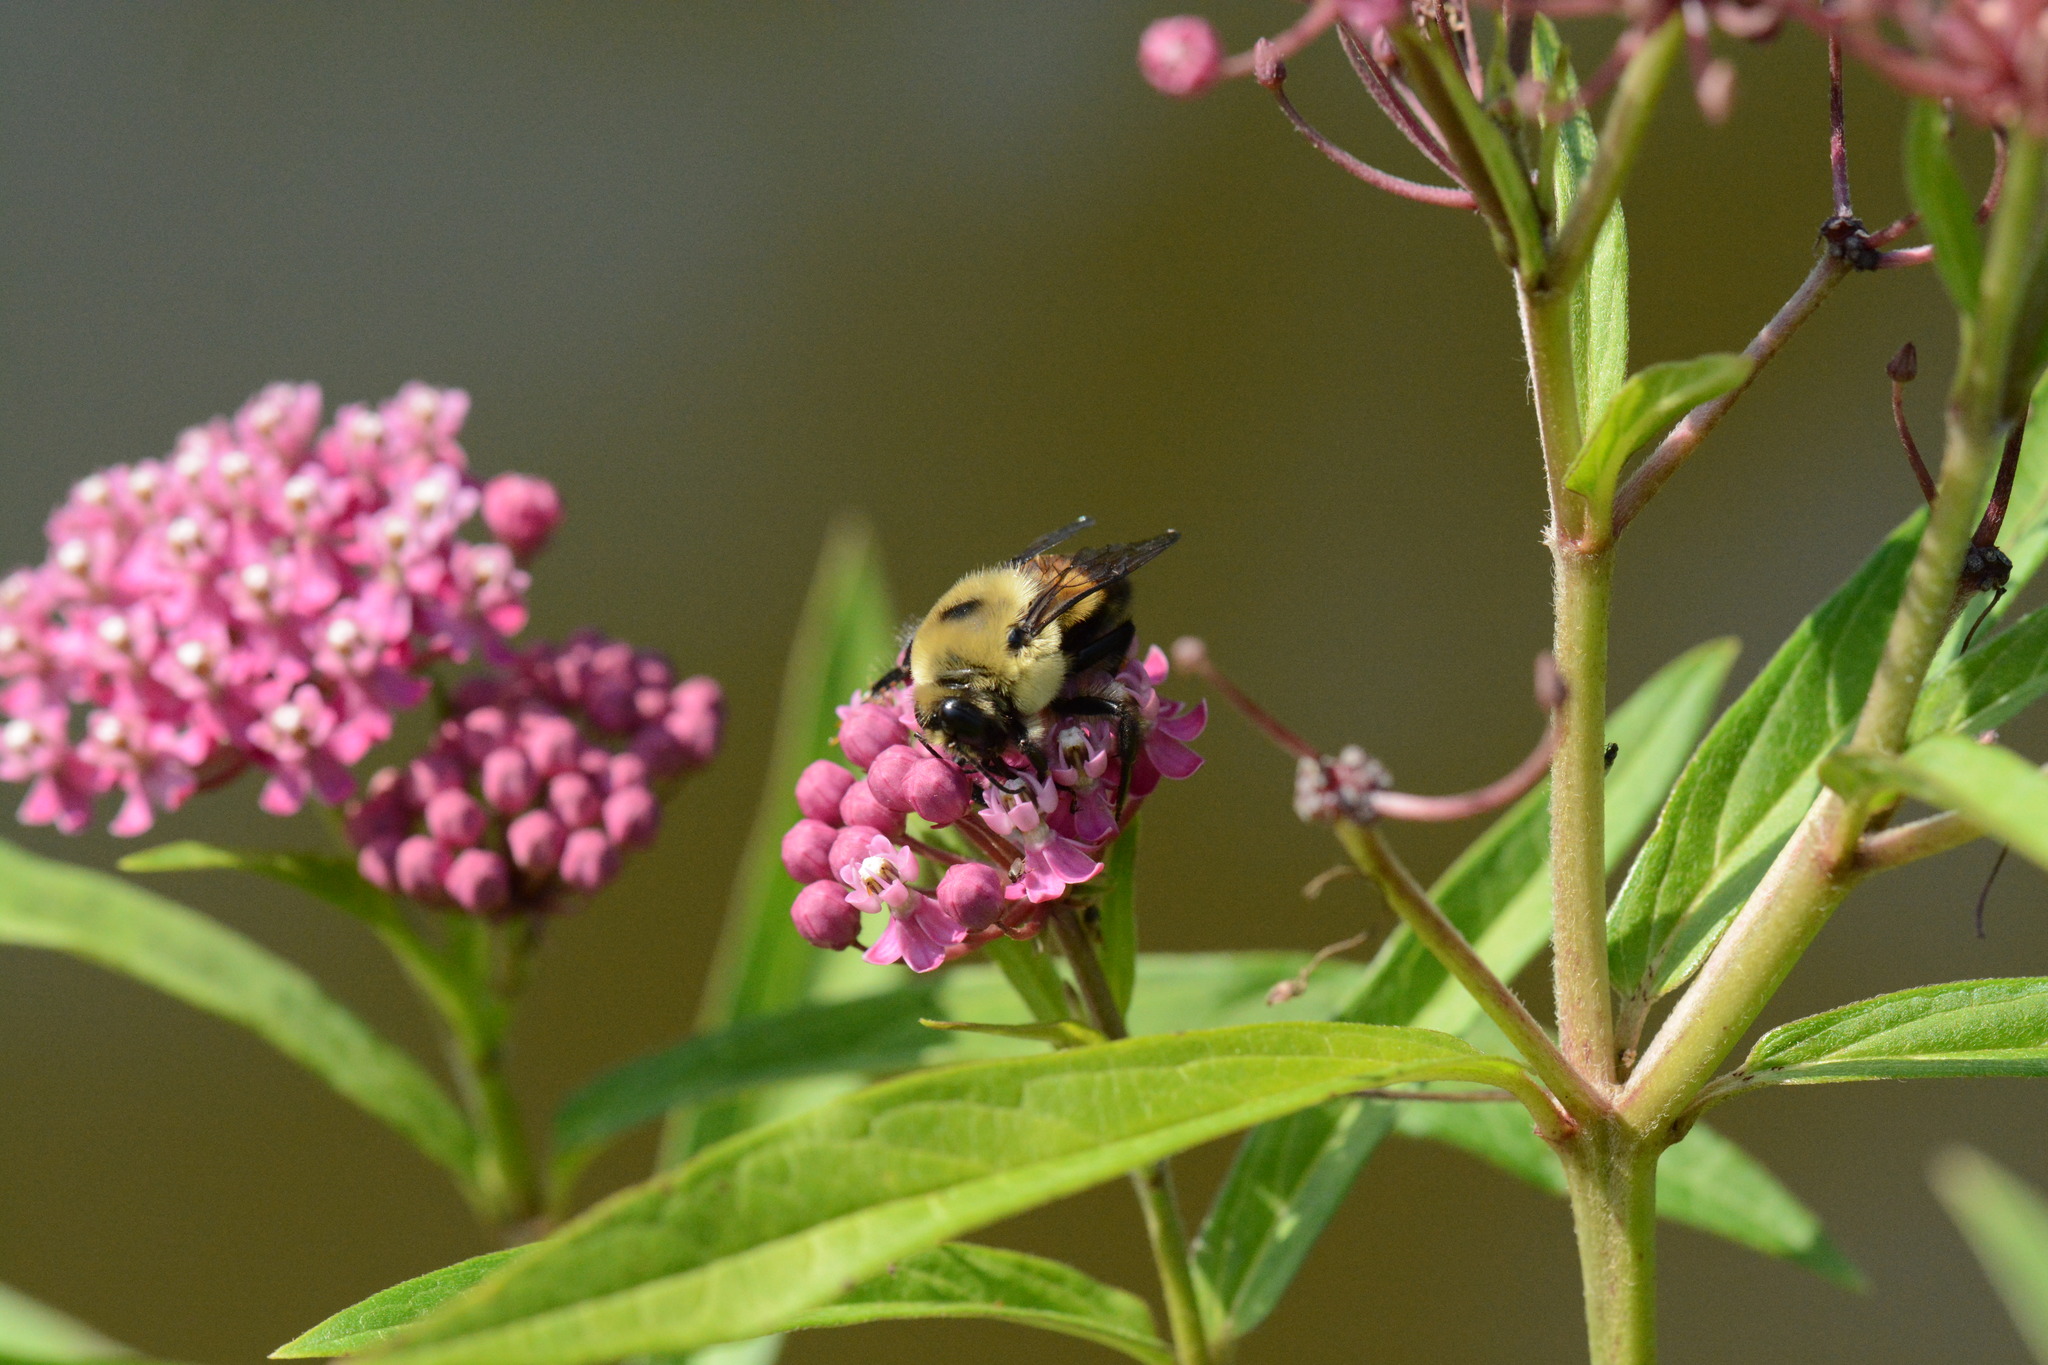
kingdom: Animalia
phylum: Arthropoda
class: Insecta
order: Hymenoptera
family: Apidae
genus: Bombus
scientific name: Bombus griseocollis
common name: Brown-belted bumble bee
